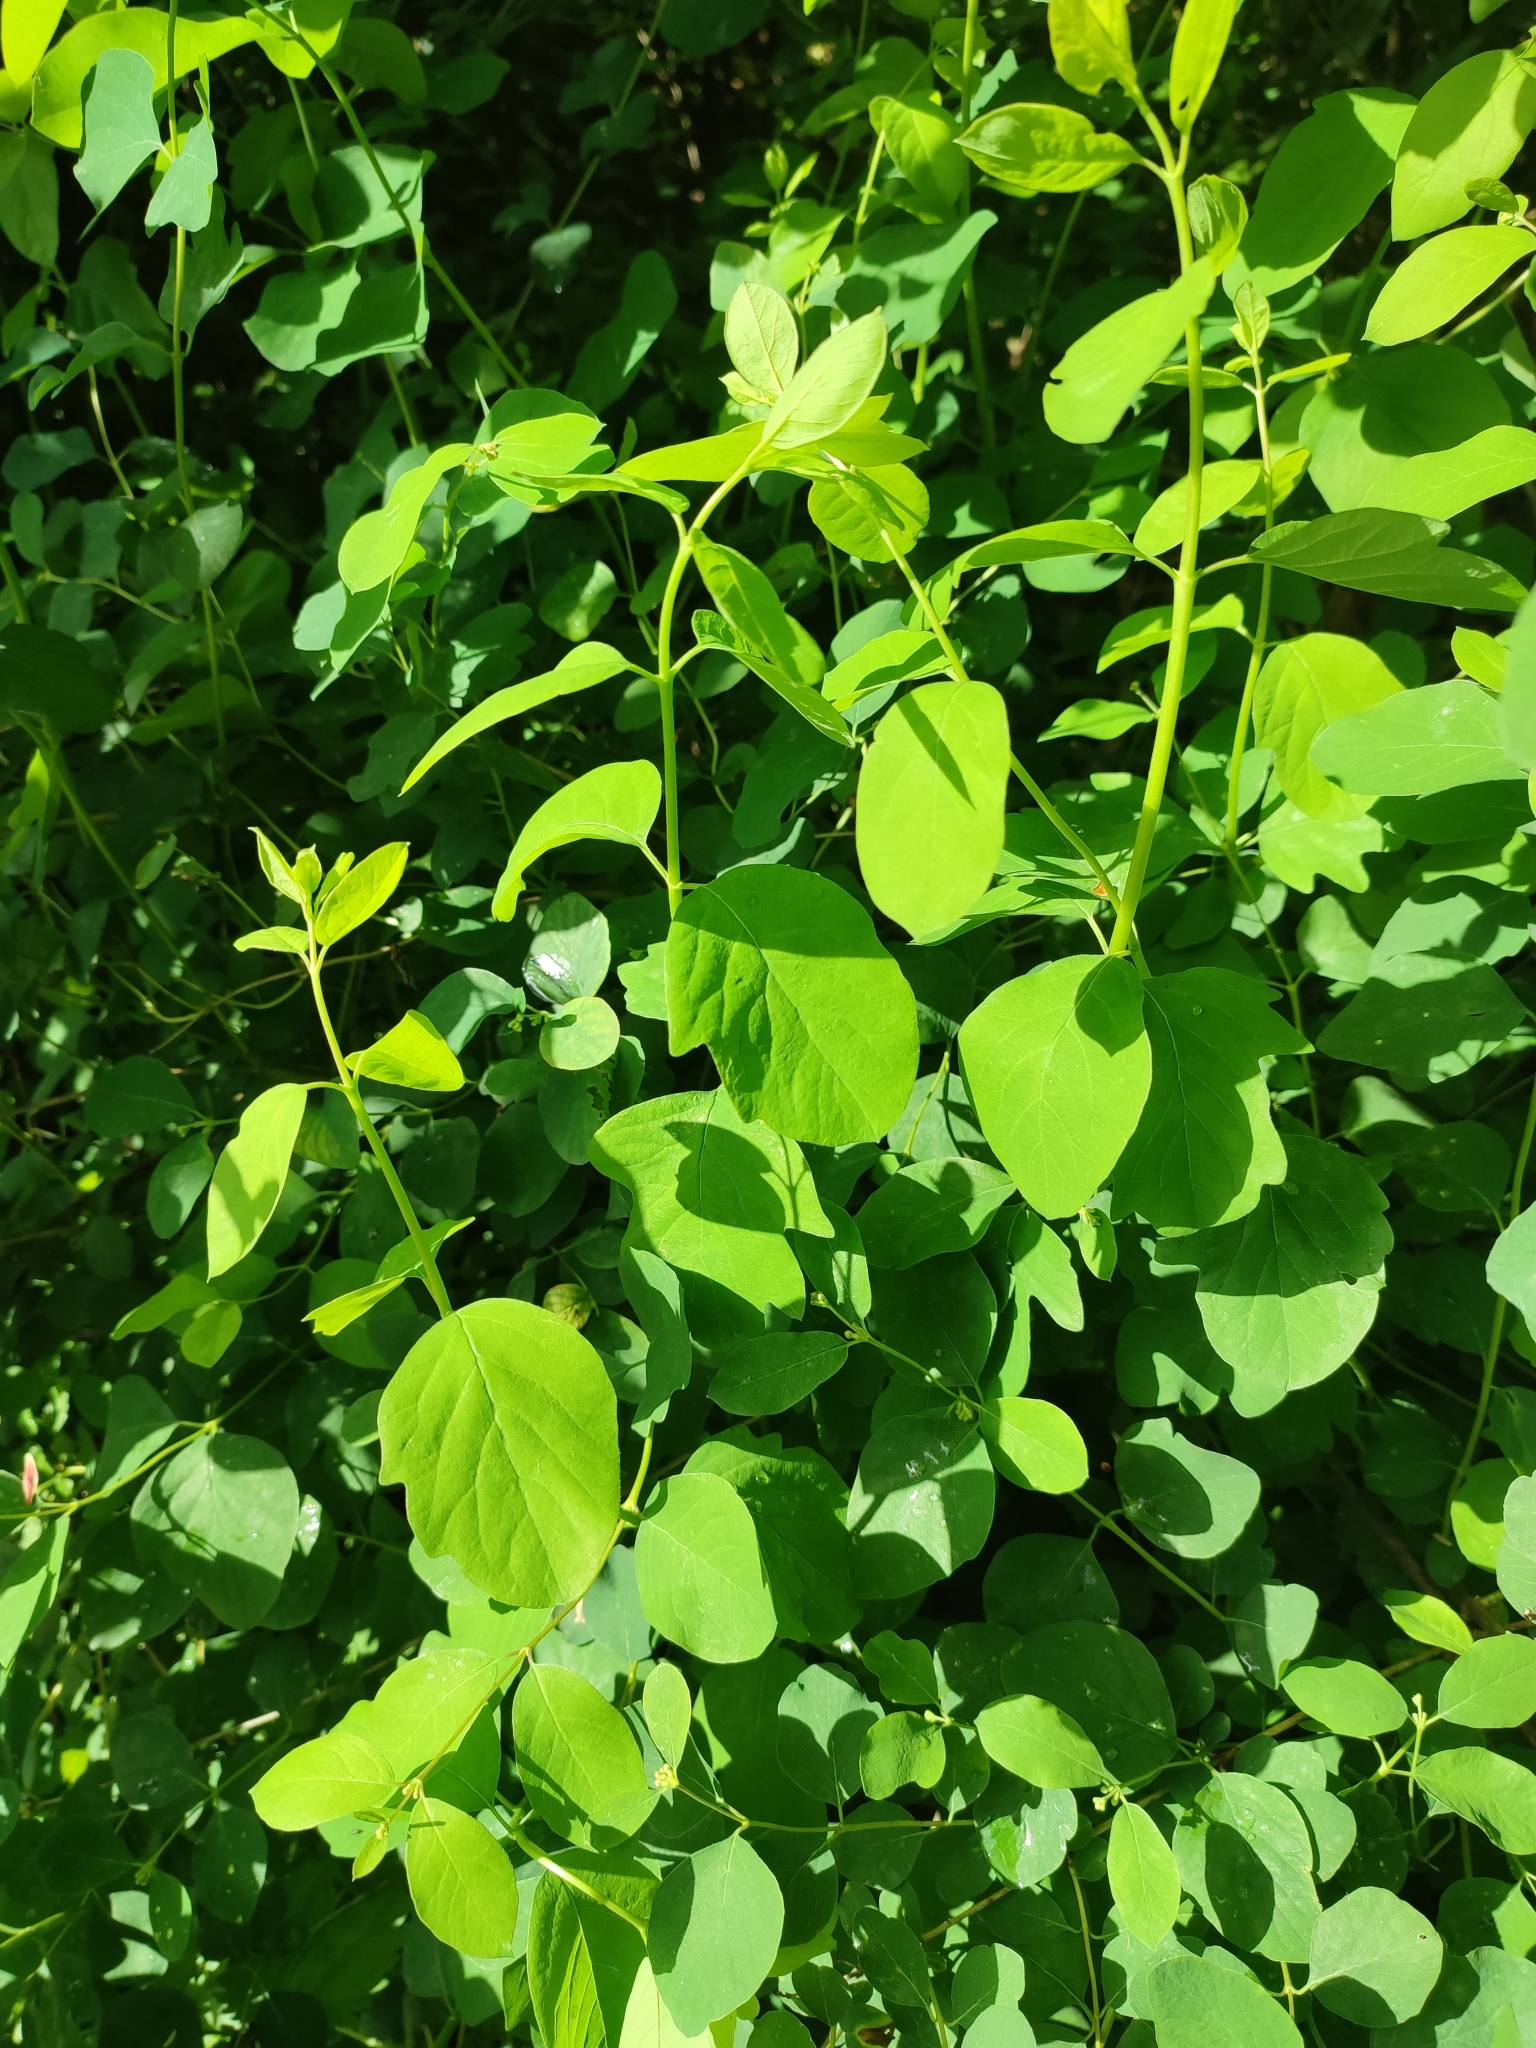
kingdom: Plantae
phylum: Tracheophyta
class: Magnoliopsida
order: Dipsacales
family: Caprifoliaceae
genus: Symphoricarpos
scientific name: Symphoricarpos albus
